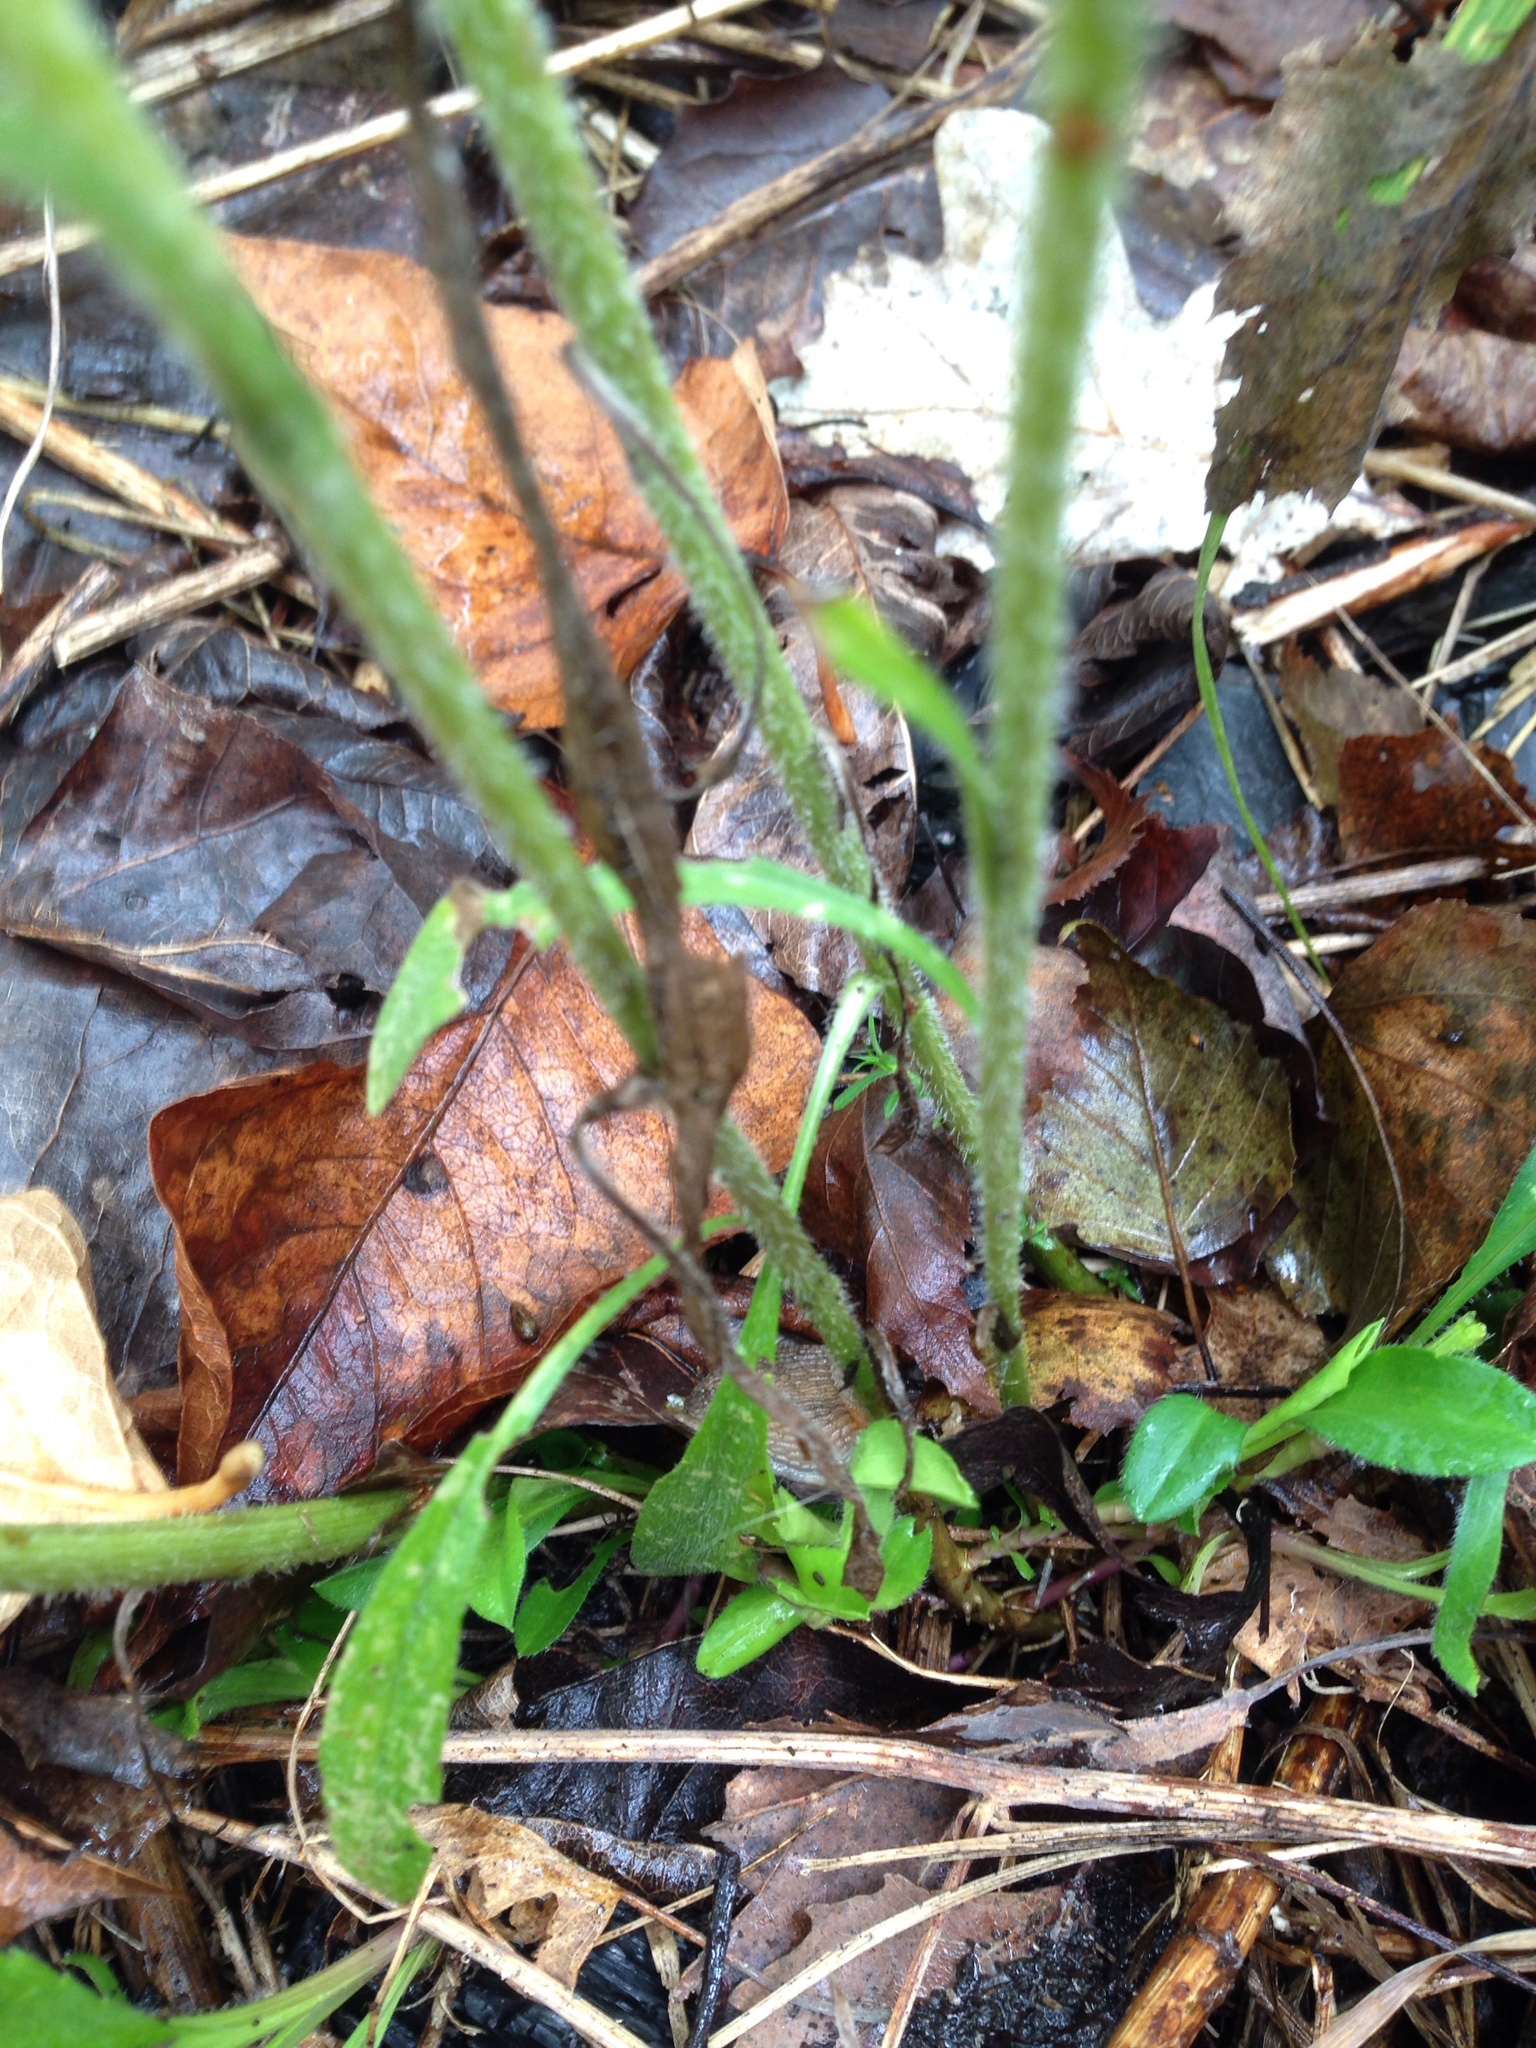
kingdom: Plantae
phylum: Tracheophyta
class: Magnoliopsida
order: Asterales
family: Asteraceae
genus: Symphyotrichum
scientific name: Symphyotrichum pilosum
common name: Awl aster
